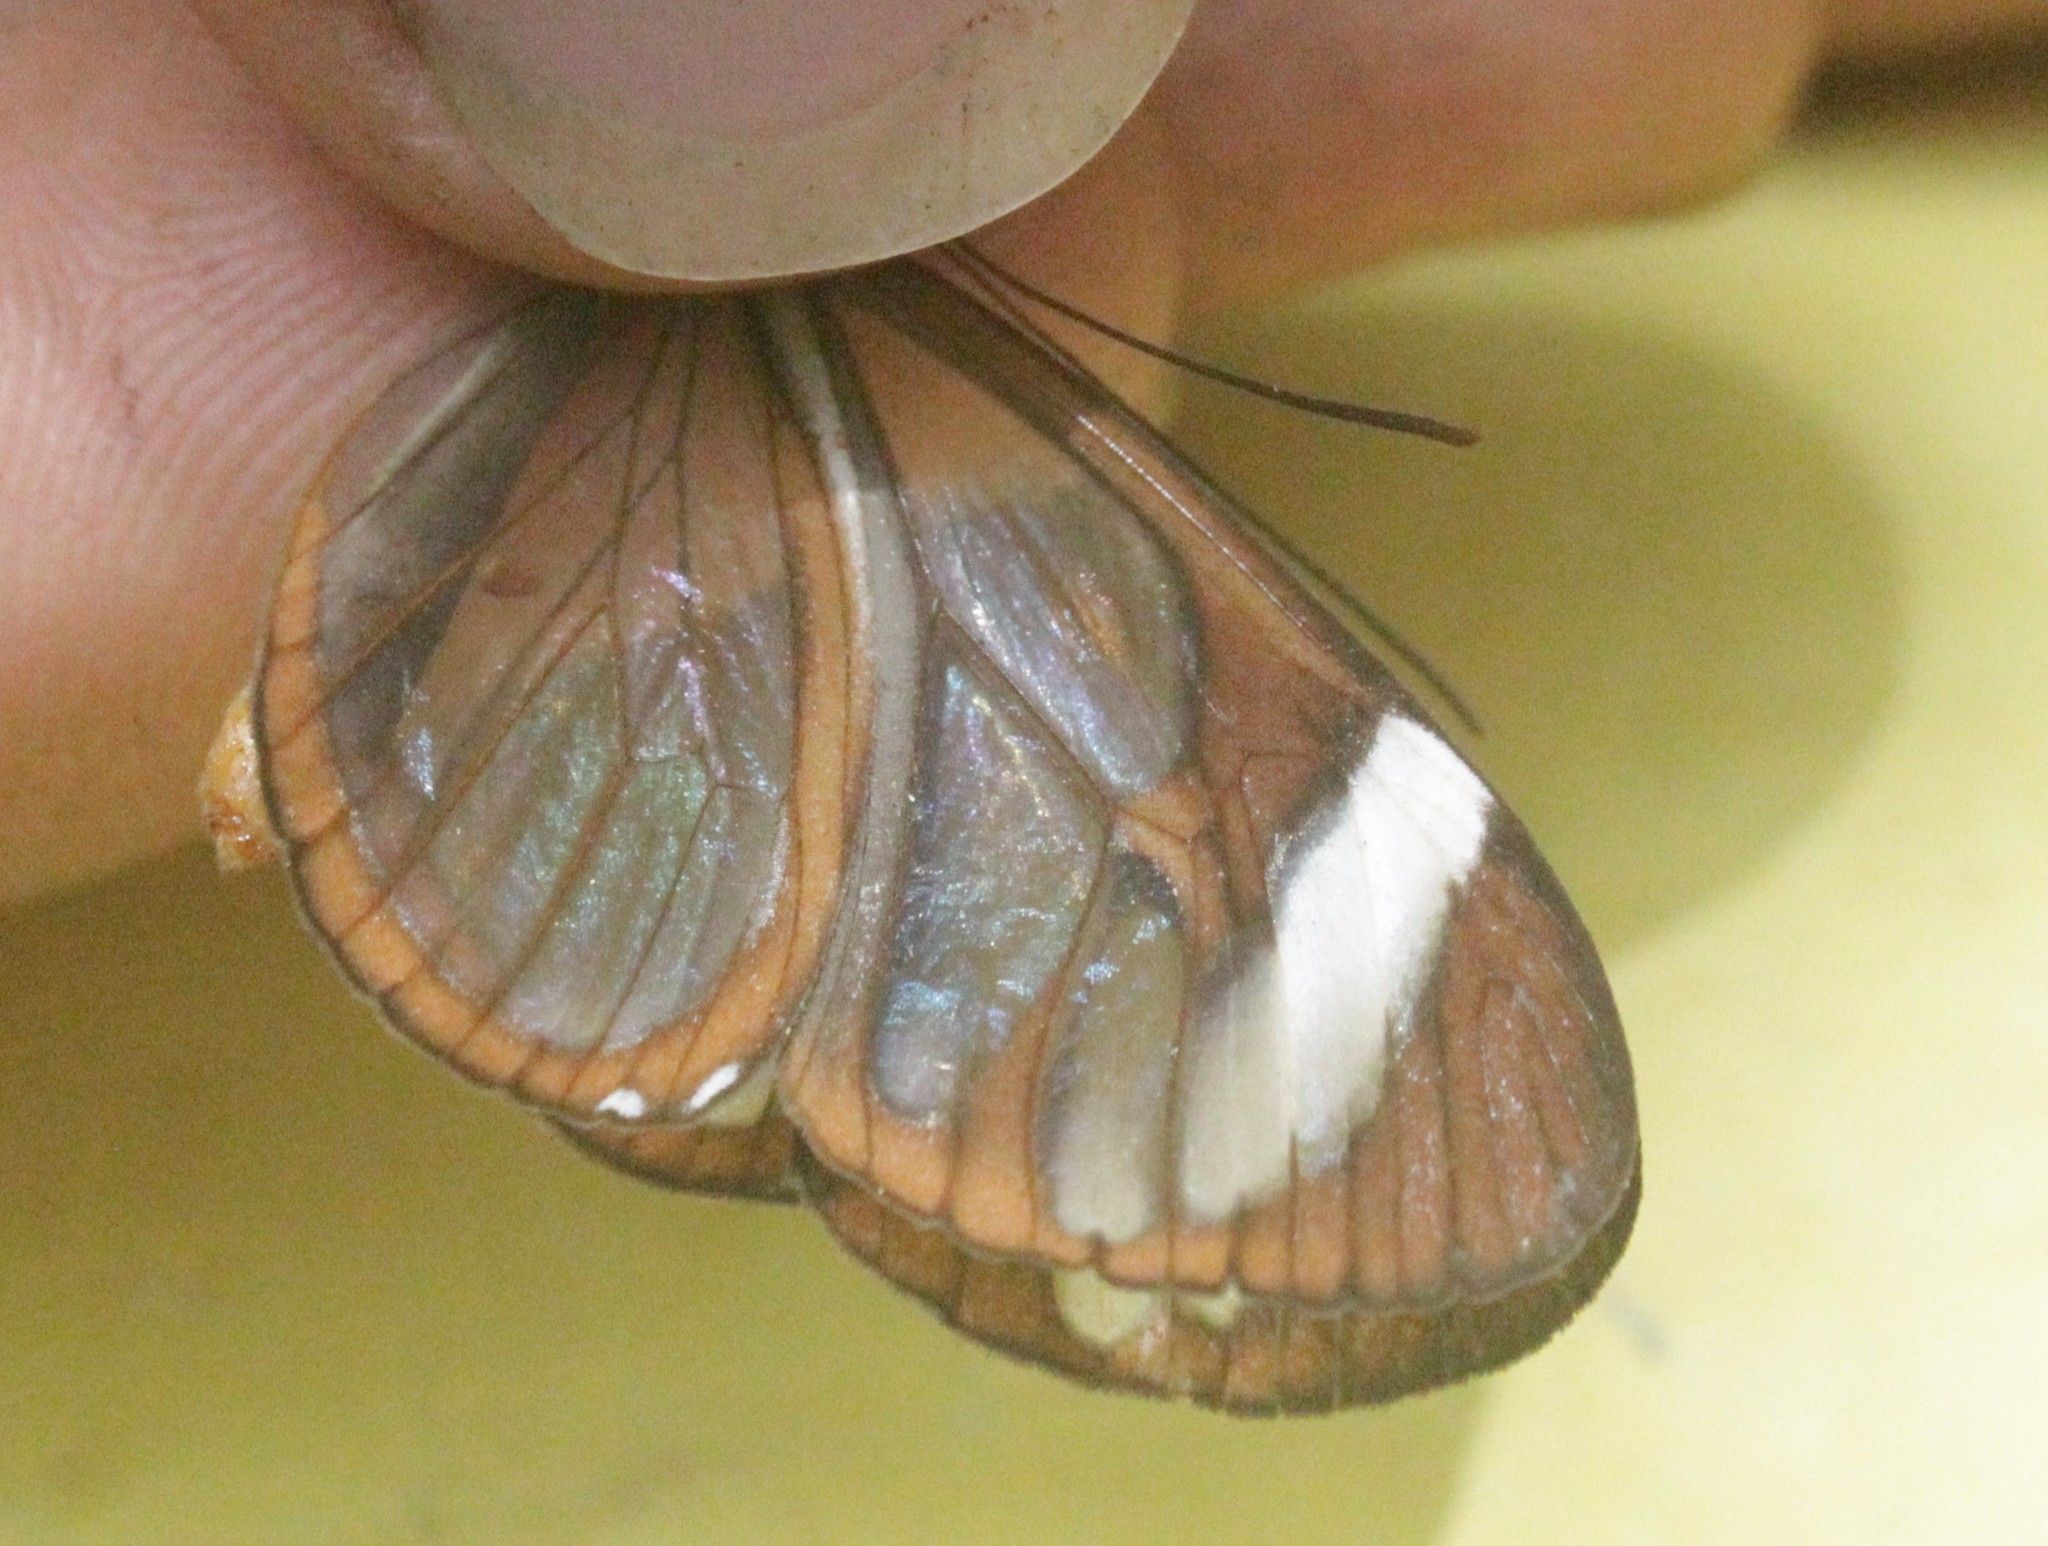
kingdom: Animalia
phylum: Arthropoda
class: Insecta
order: Lepidoptera
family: Nymphalidae
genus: Ithomia
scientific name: Ithomia patilla
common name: Patilla clearwing
